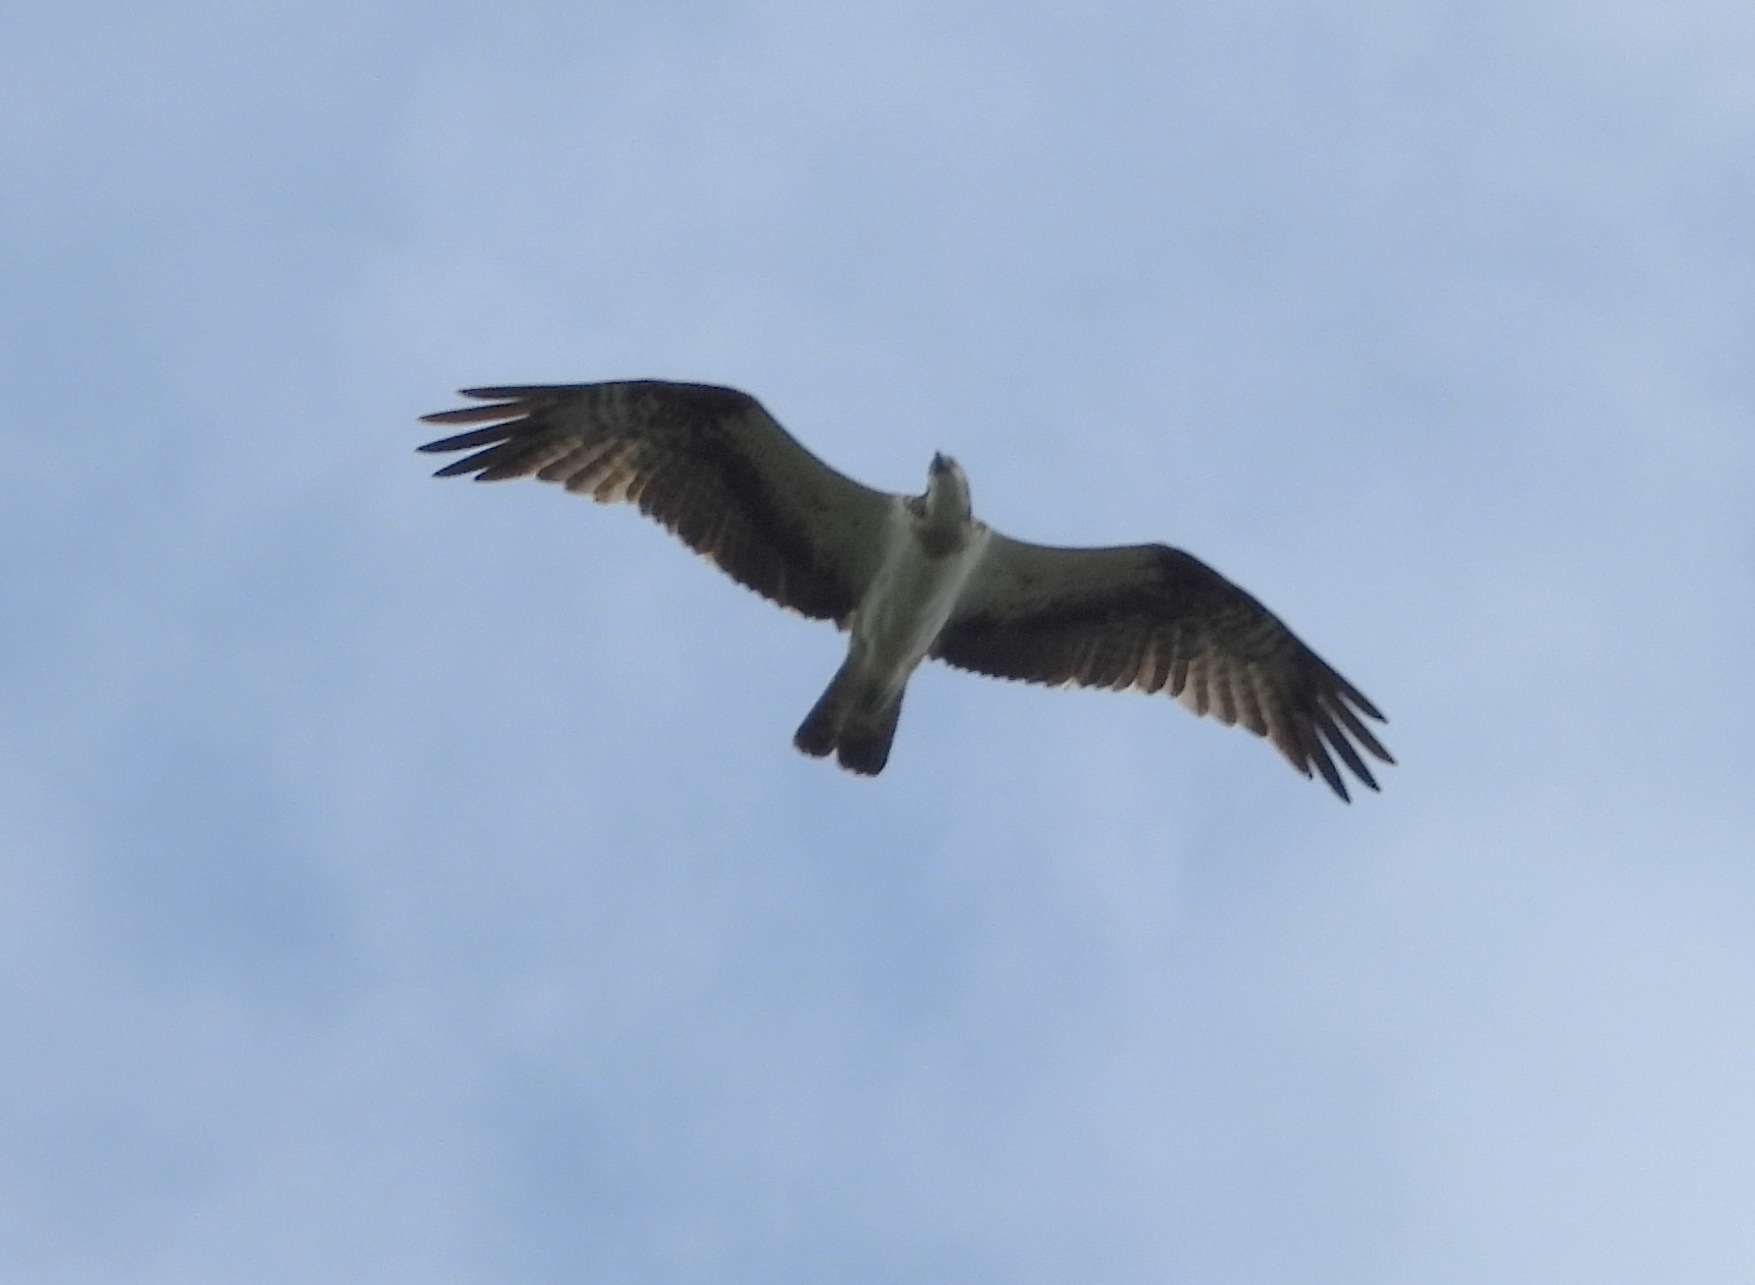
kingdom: Animalia
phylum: Chordata
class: Aves
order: Accipitriformes
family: Pandionidae
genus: Pandion
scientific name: Pandion haliaetus
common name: Osprey
